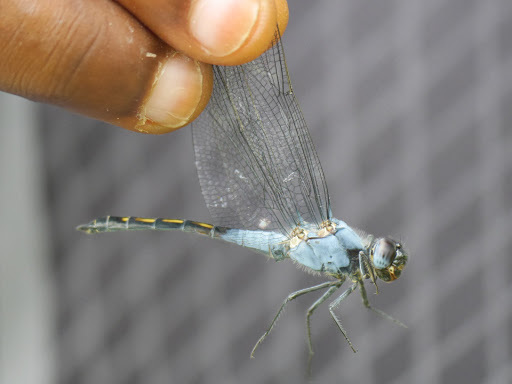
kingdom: Animalia
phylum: Arthropoda
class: Insecta
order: Odonata
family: Libellulidae
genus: Nesciothemis
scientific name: Nesciothemis farinosa
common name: Eastern blacktail
